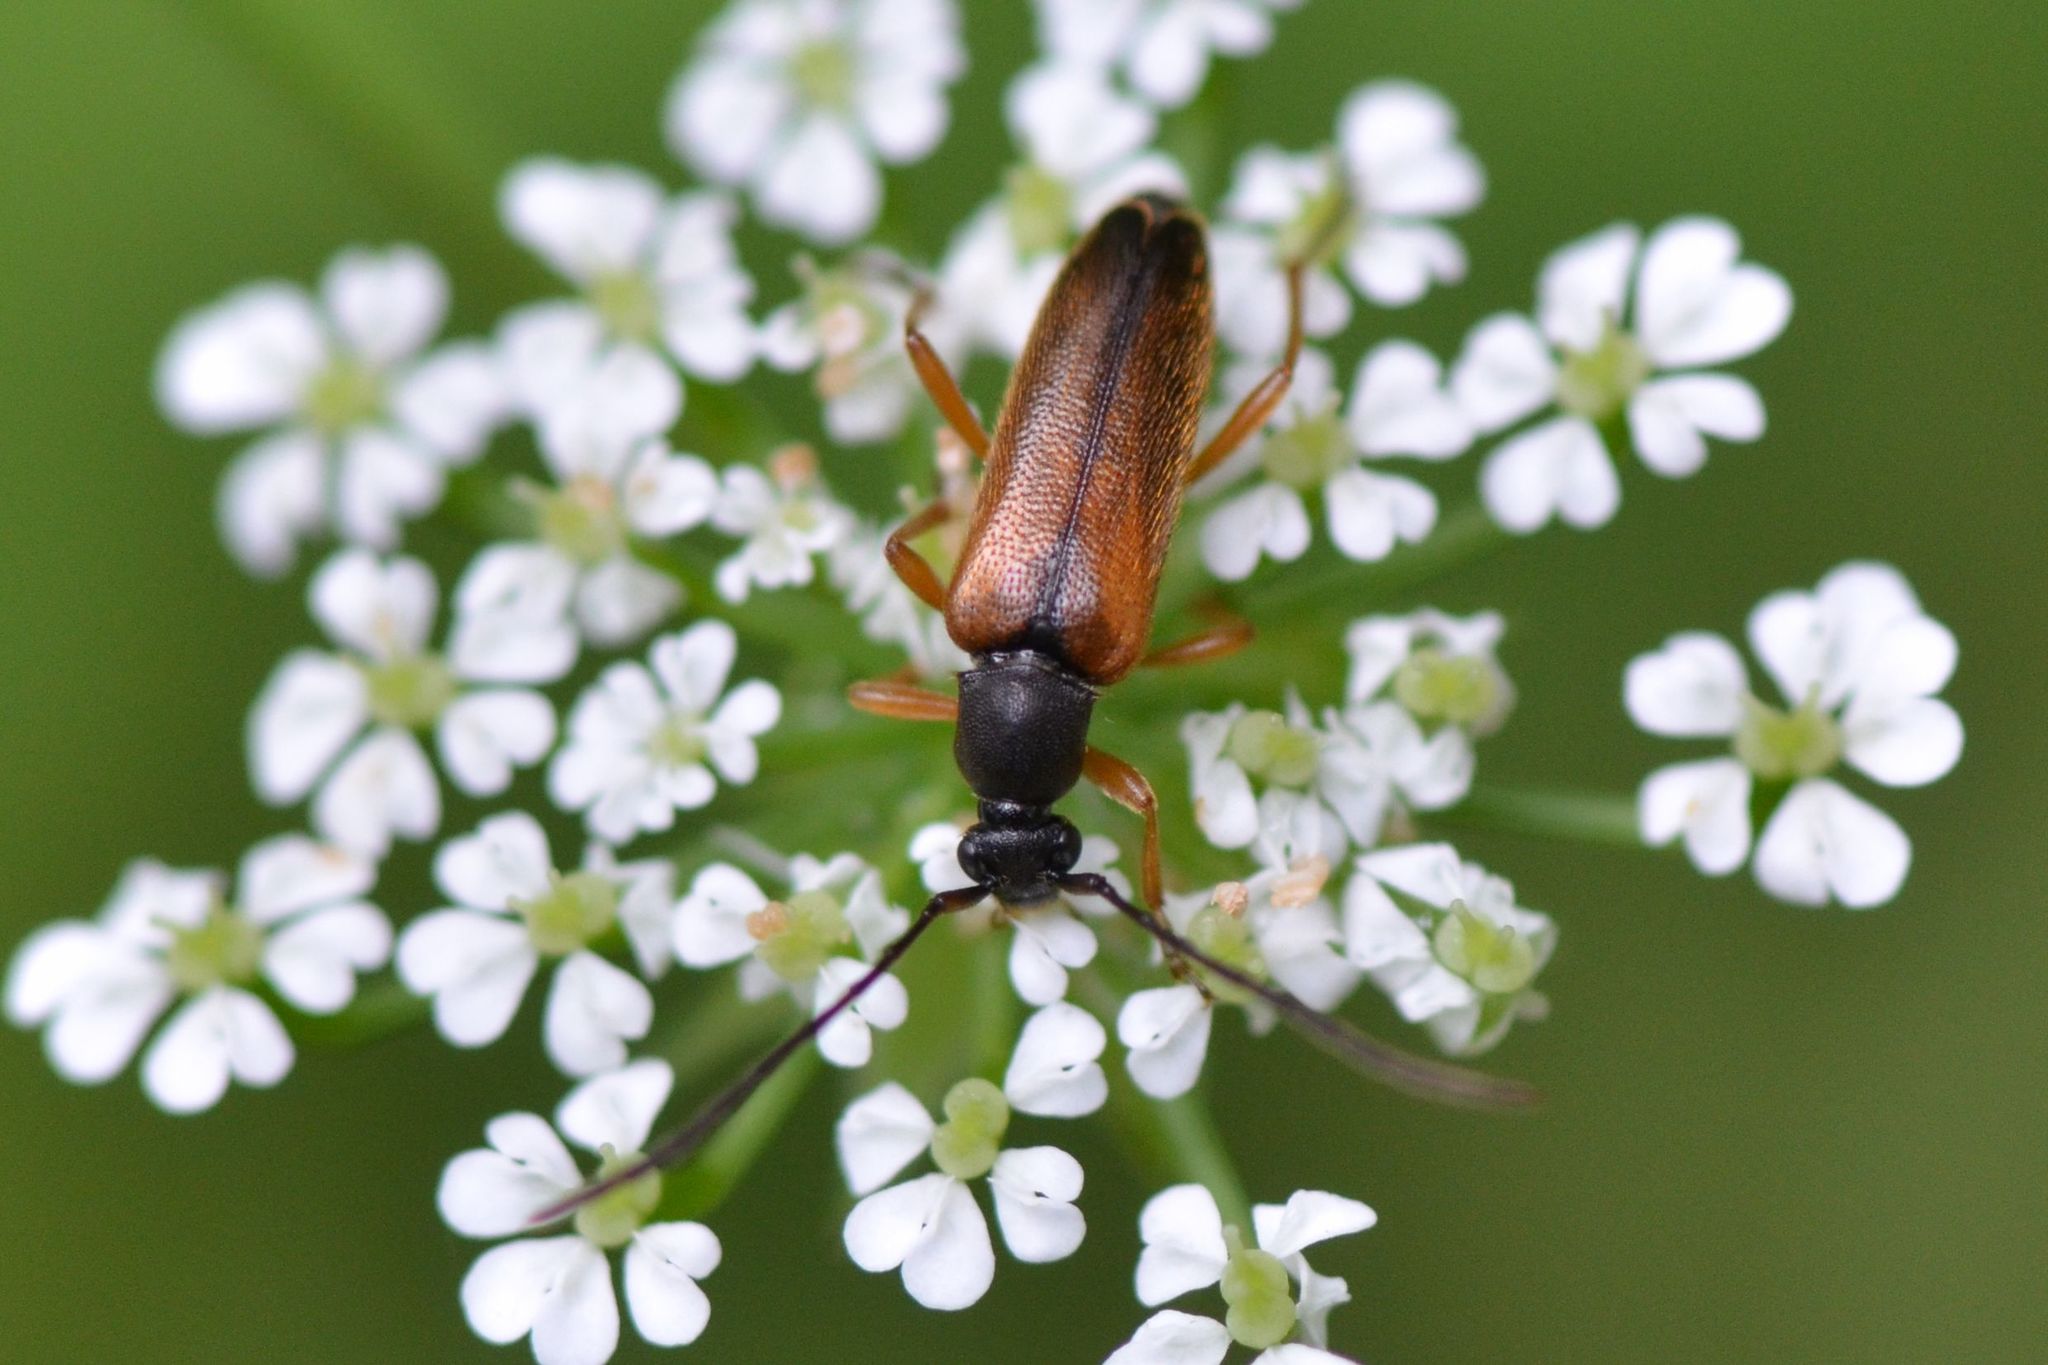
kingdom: Animalia
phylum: Arthropoda
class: Insecta
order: Coleoptera
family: Cerambycidae
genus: Alosterna
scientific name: Alosterna tabacicolor
